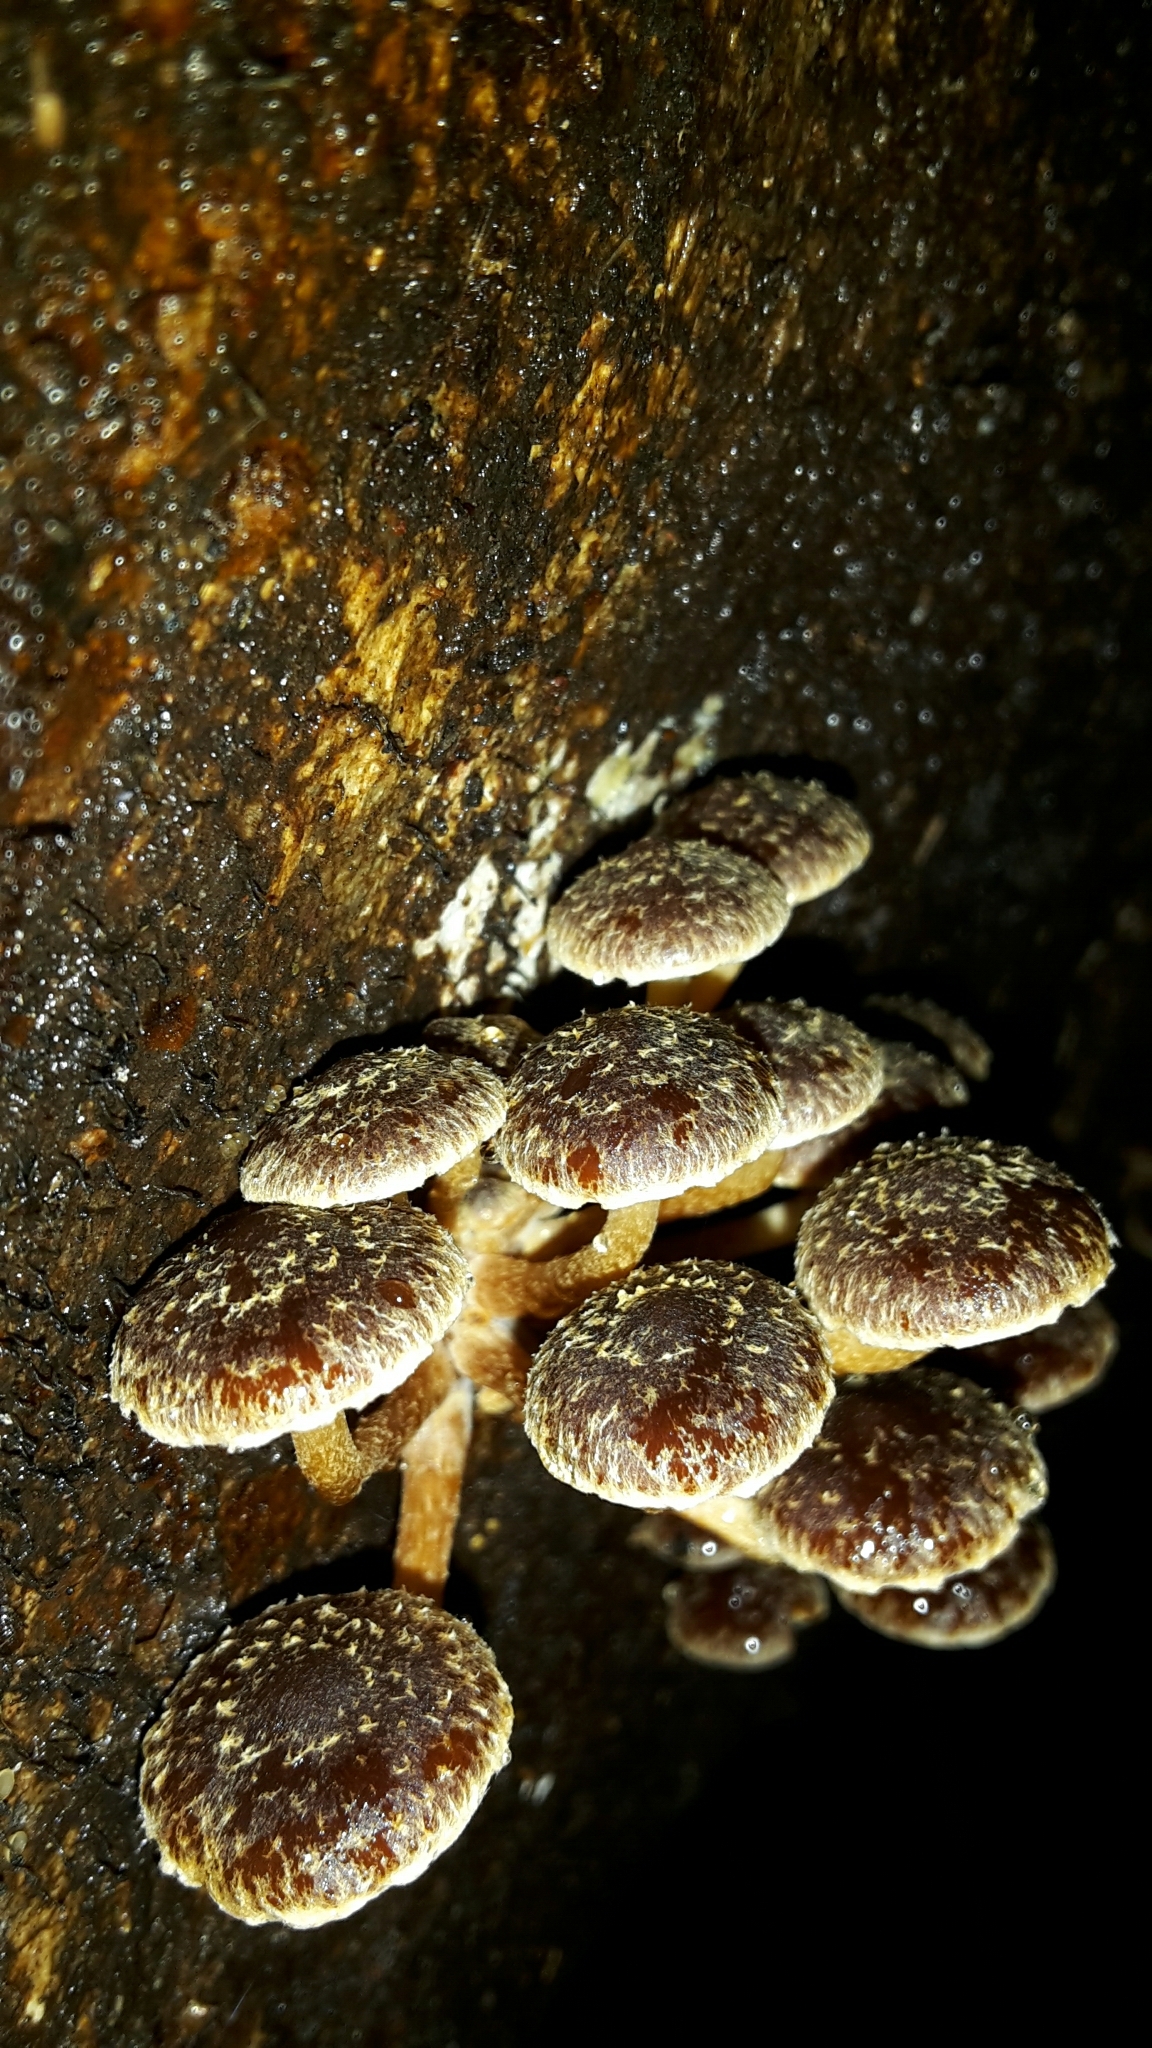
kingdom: Fungi
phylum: Basidiomycota
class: Agaricomycetes
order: Agaricales
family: Strophariaceae
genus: Hypholoma
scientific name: Hypholoma brunneum
